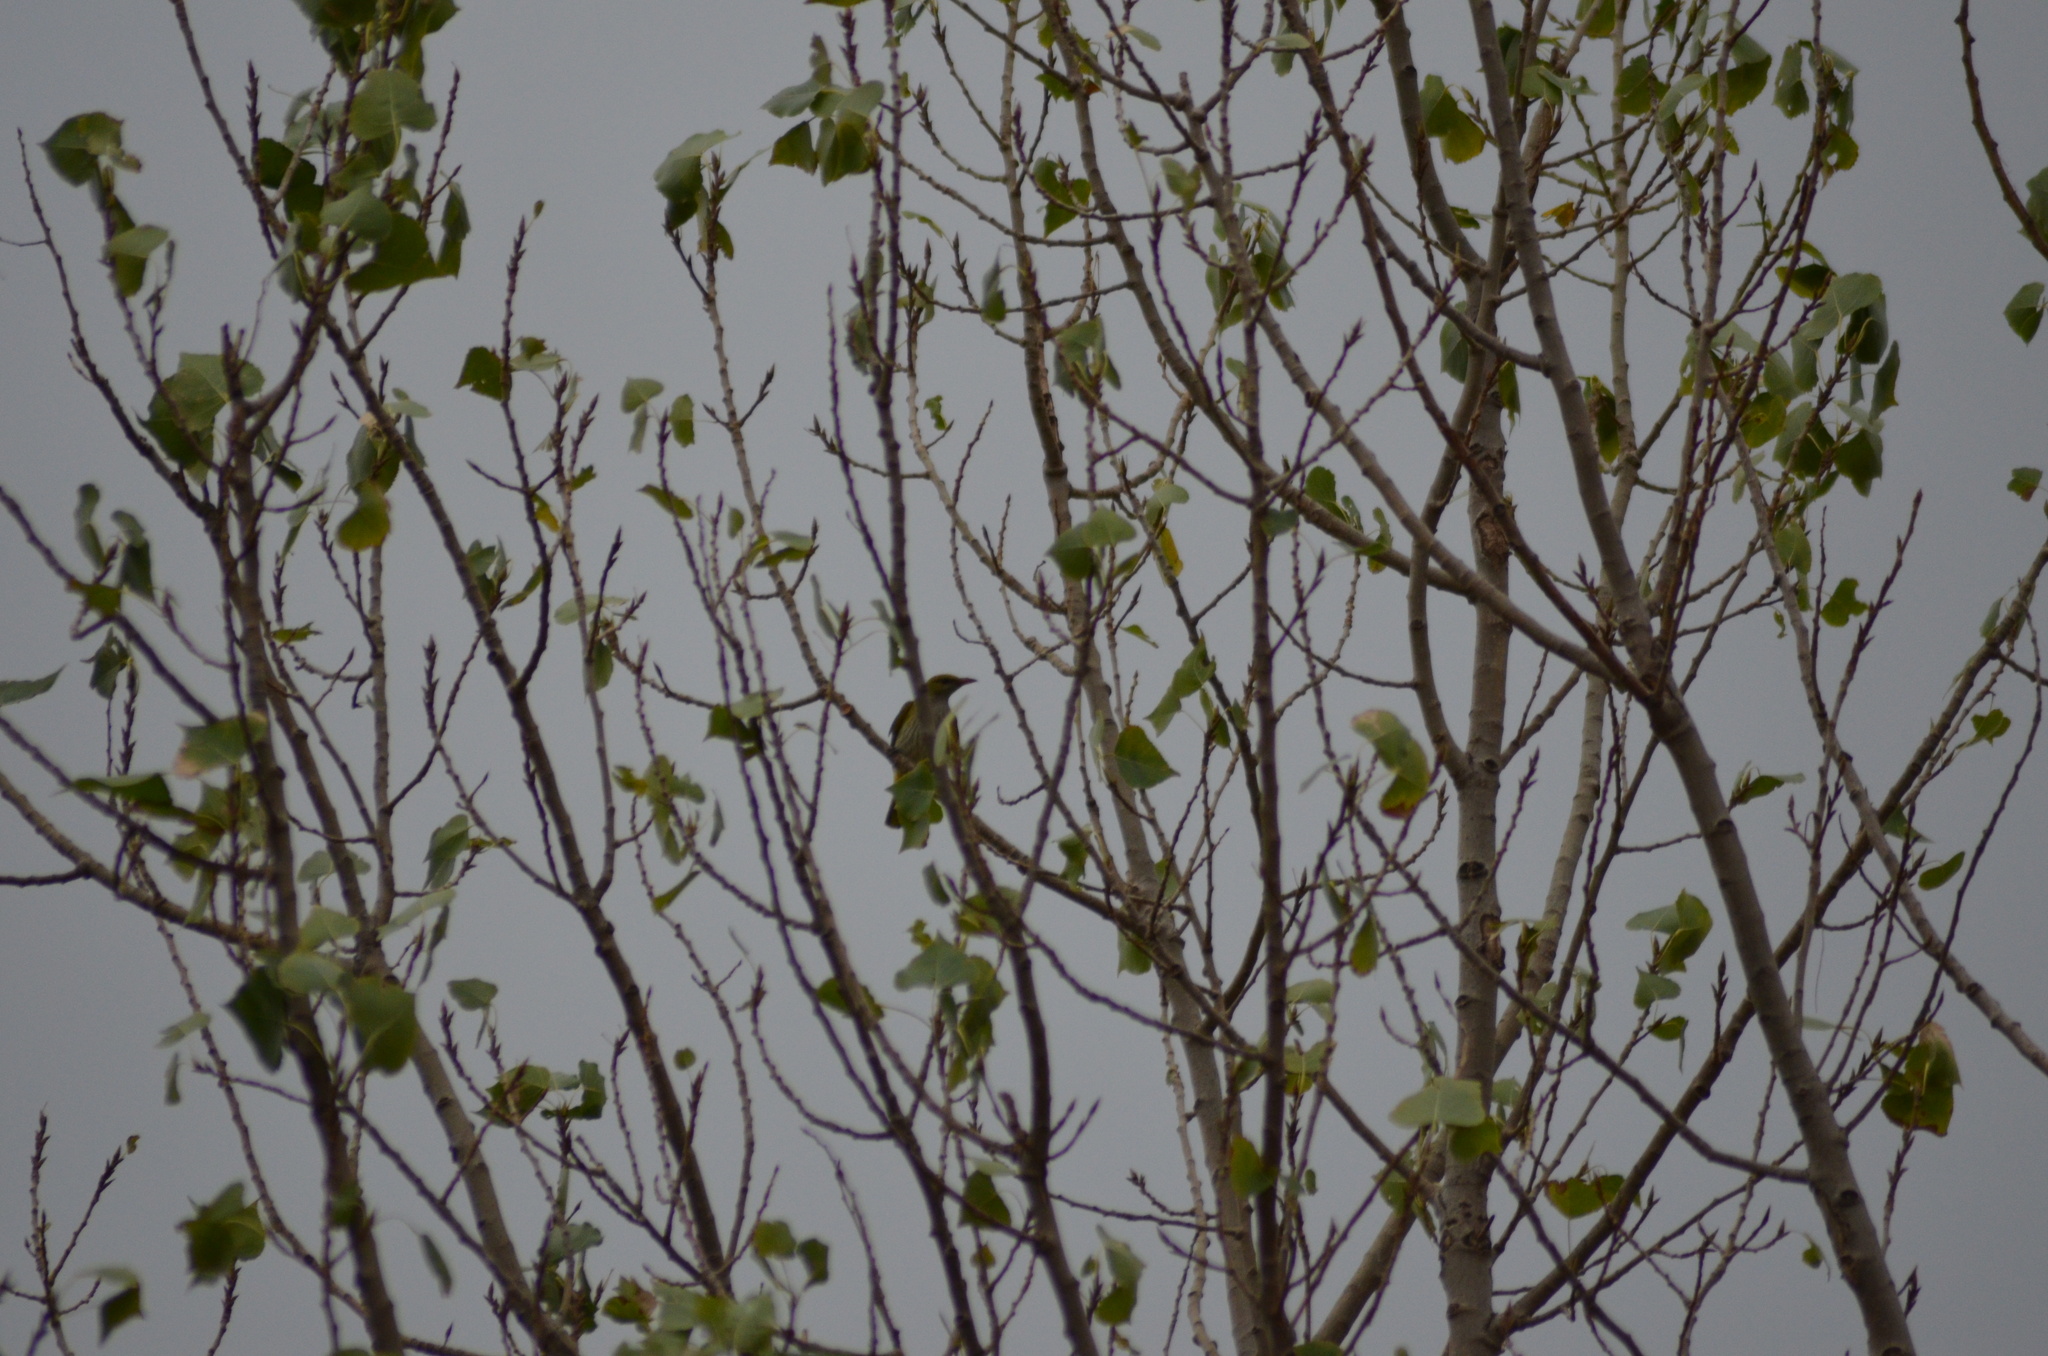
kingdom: Animalia
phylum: Chordata
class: Aves
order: Passeriformes
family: Oriolidae
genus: Oriolus
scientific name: Oriolus oriolus
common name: Eurasian golden oriole
